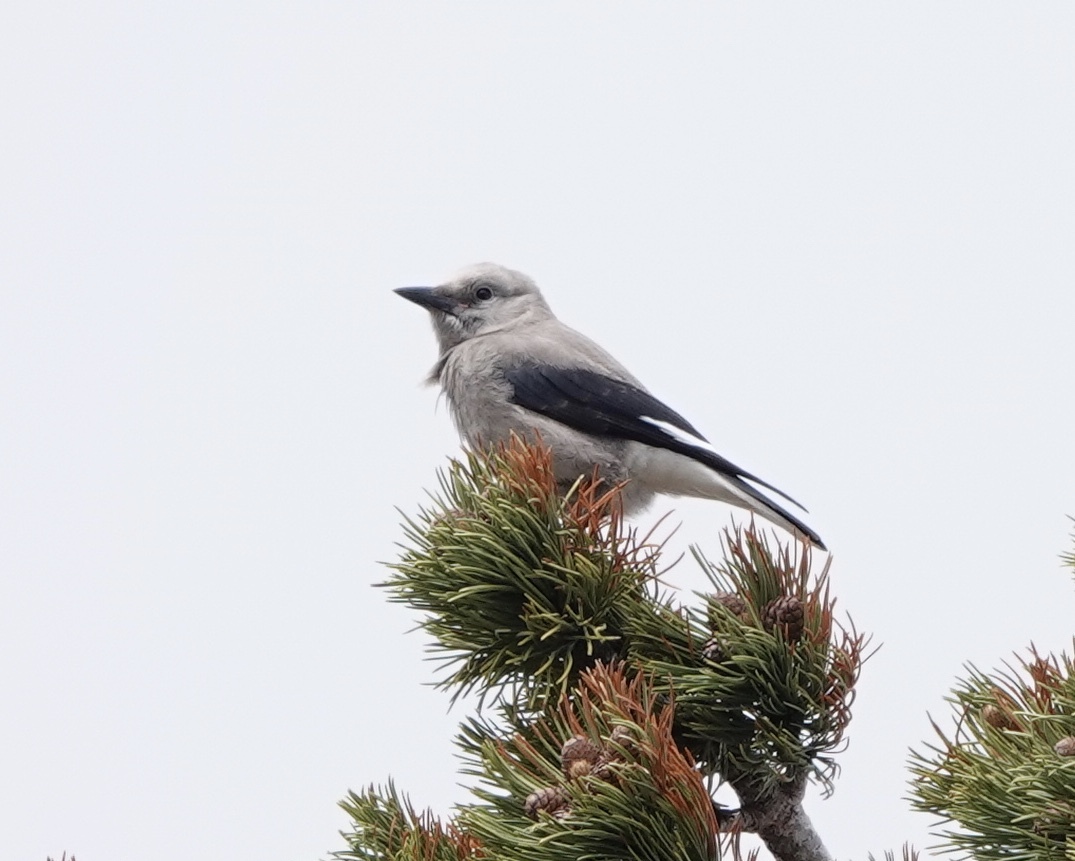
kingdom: Animalia
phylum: Chordata
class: Aves
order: Passeriformes
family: Corvidae
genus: Nucifraga
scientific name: Nucifraga columbiana
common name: Clark's nutcracker
